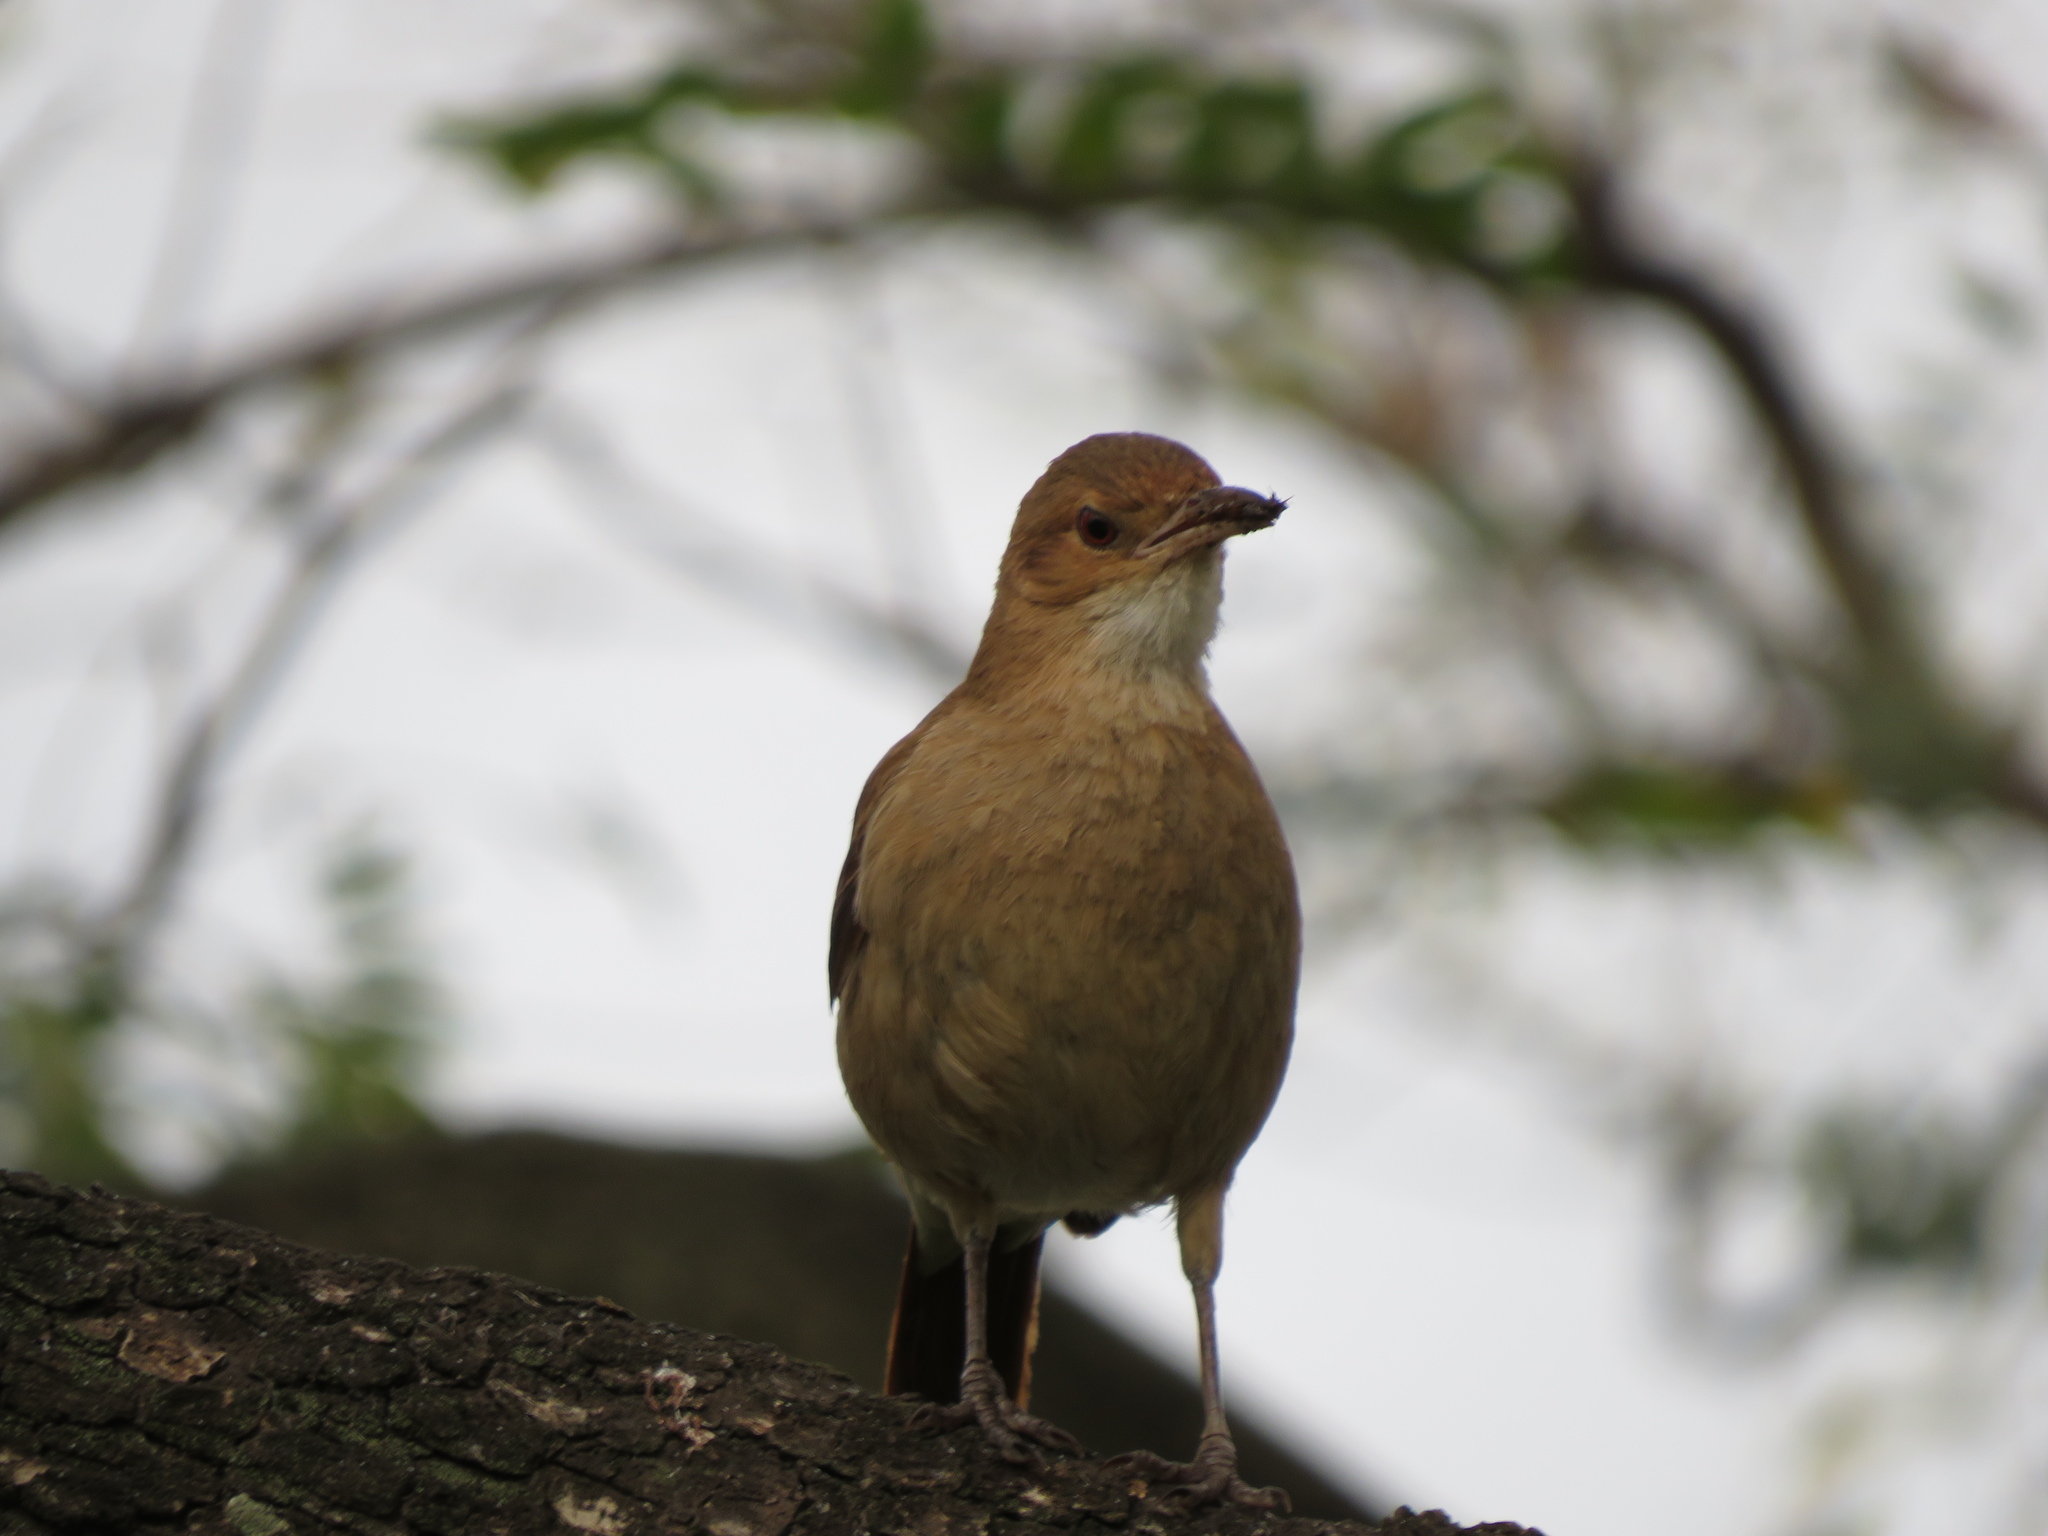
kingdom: Animalia
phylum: Chordata
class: Aves
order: Passeriformes
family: Furnariidae
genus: Furnarius
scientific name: Furnarius rufus
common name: Rufous hornero
